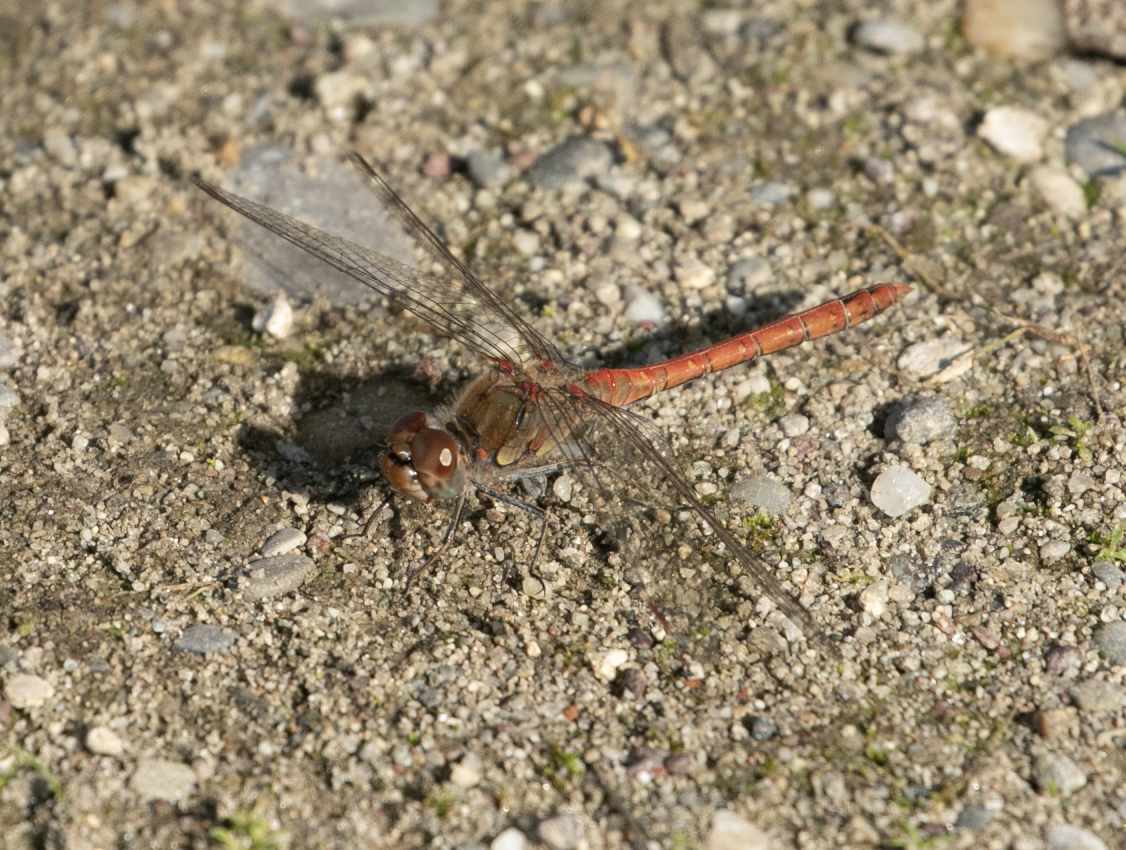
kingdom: Animalia
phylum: Arthropoda
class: Insecta
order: Odonata
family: Libellulidae
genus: Sympetrum
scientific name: Sympetrum striolatum
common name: Common darter
